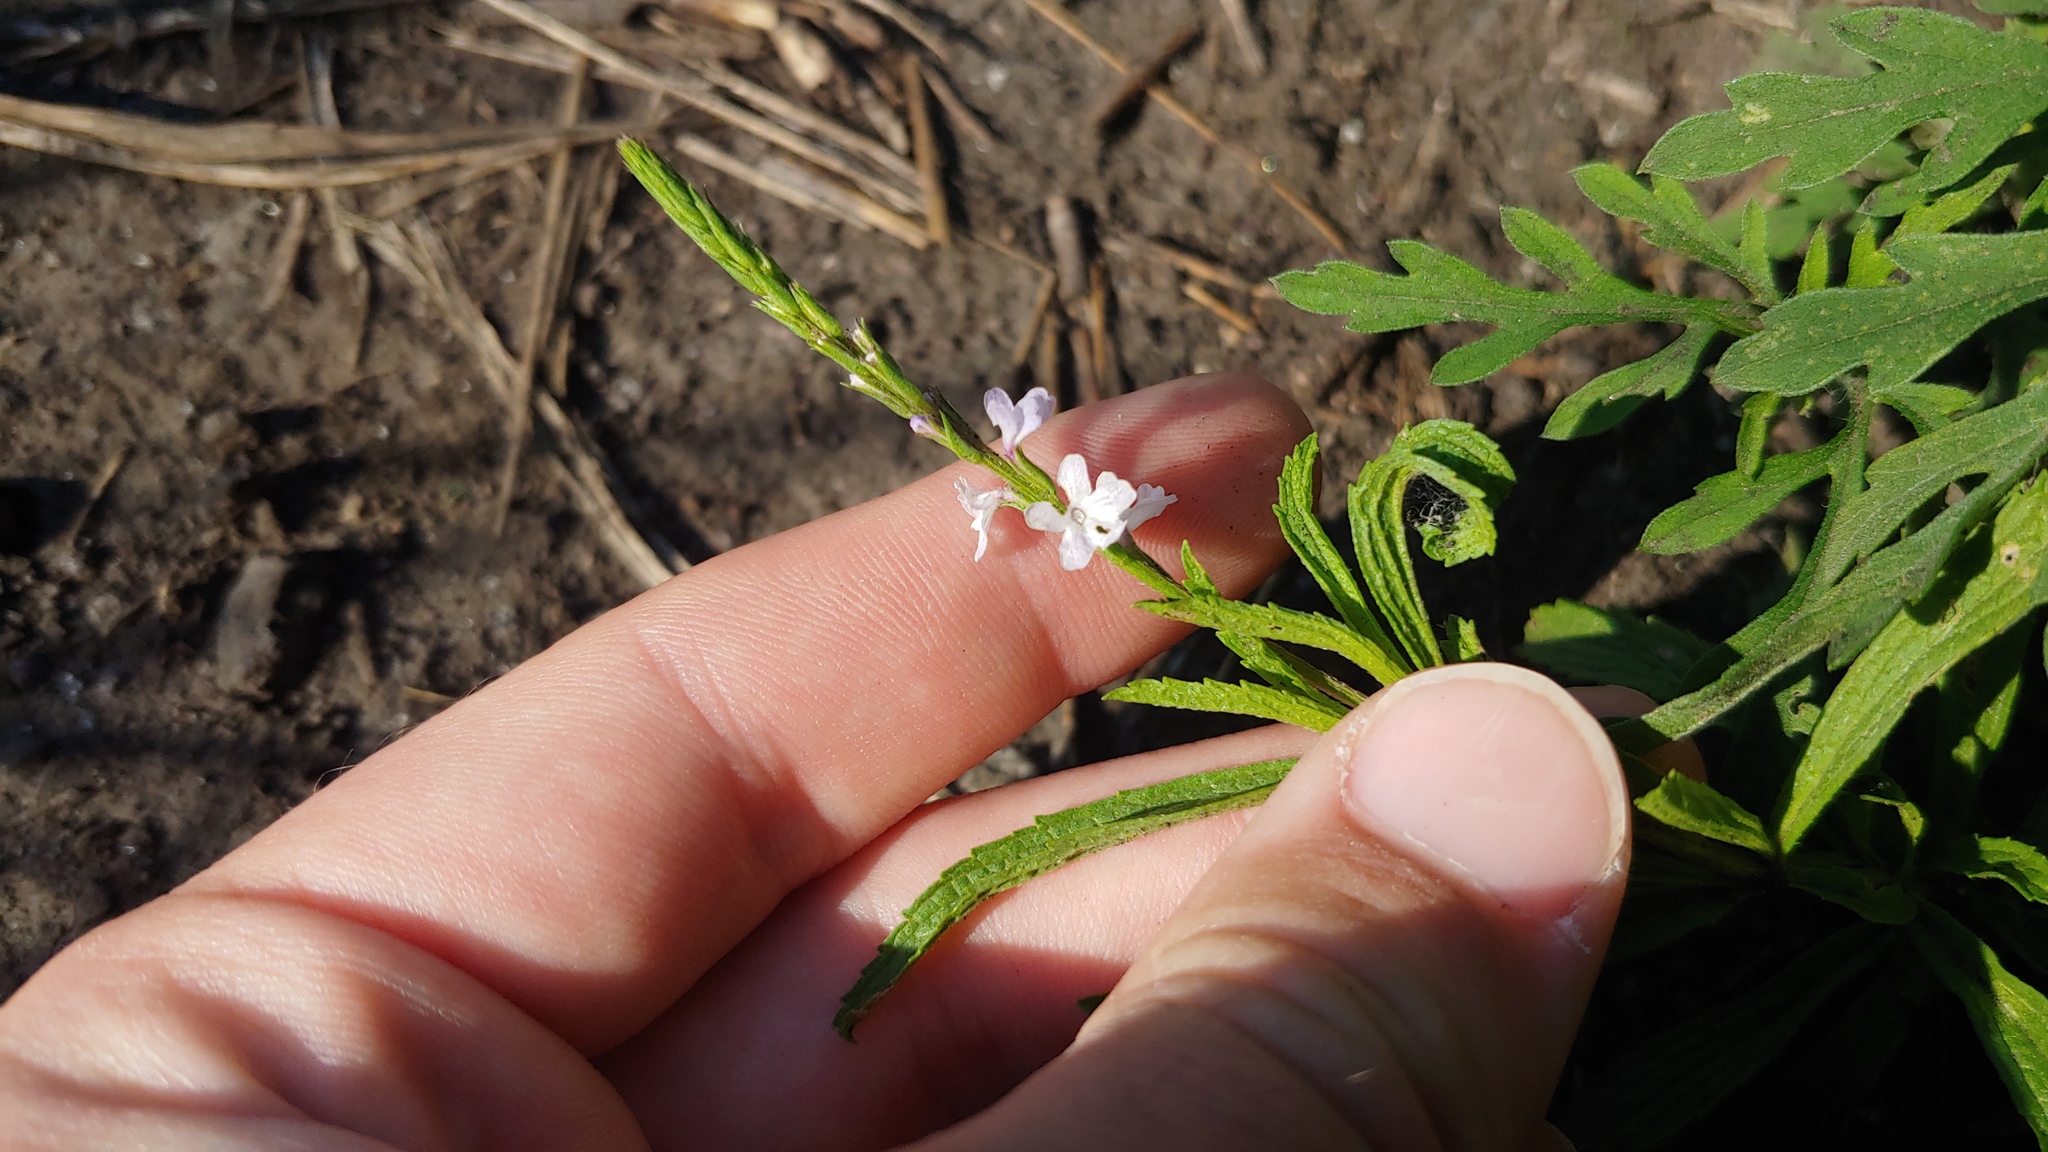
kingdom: Plantae
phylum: Tracheophyta
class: Magnoliopsida
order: Lamiales
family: Verbenaceae
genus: Verbena
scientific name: Verbena simplex
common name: Narrow-leaf vervain
